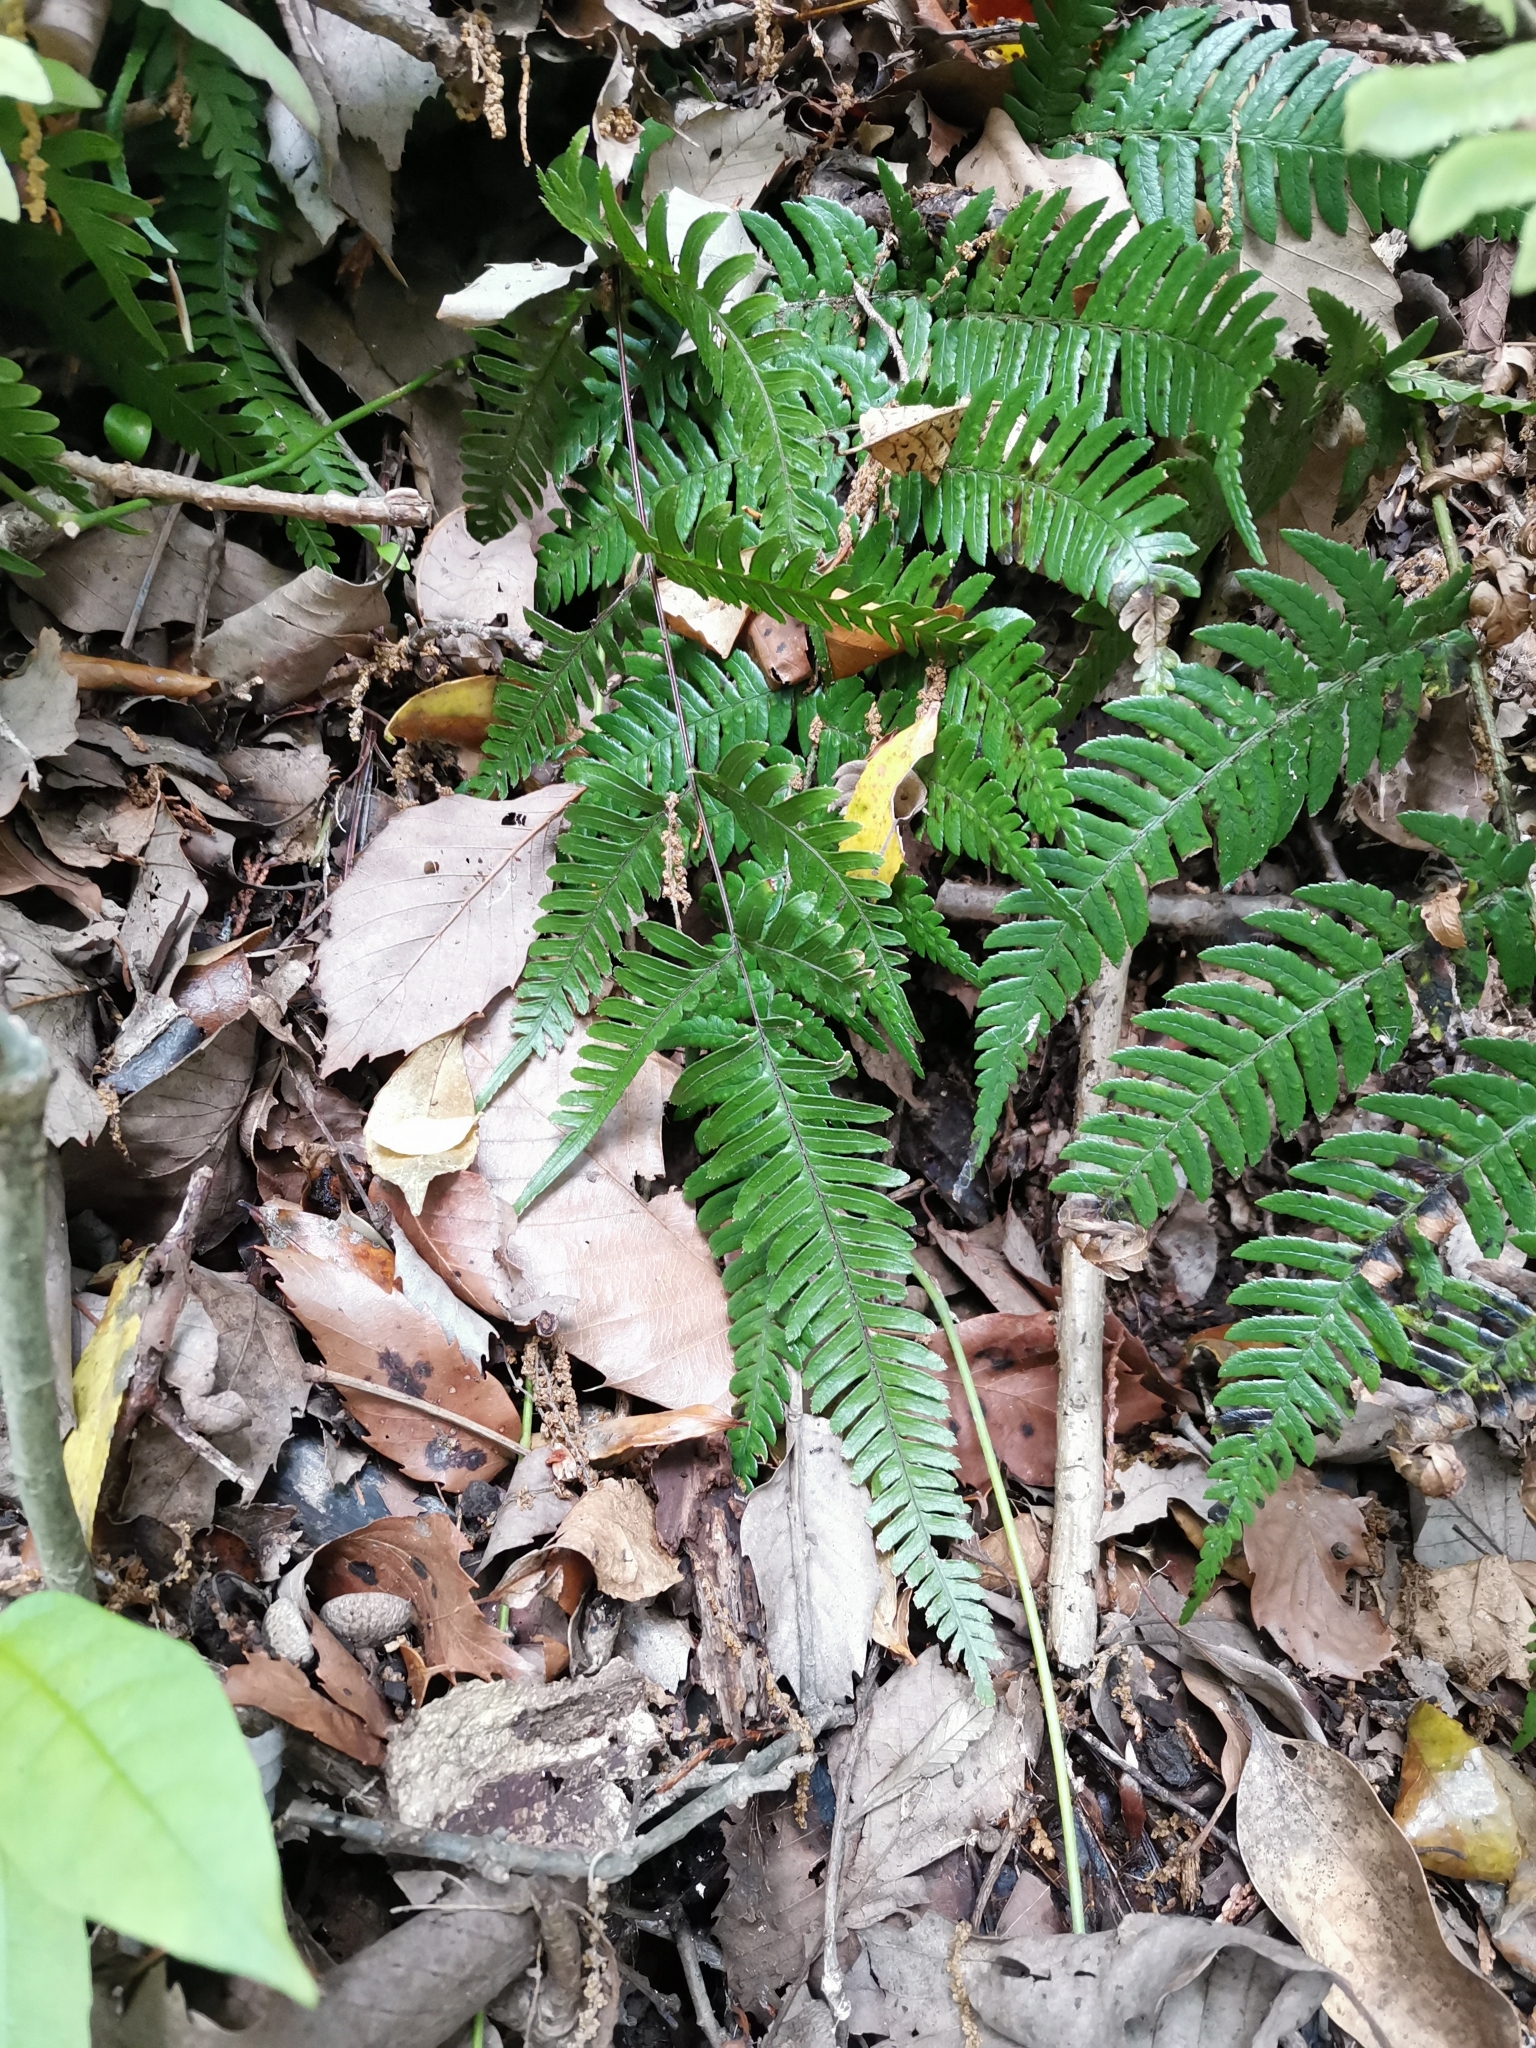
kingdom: Plantae
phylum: Tracheophyta
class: Polypodiopsida
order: Polypodiales
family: Pteridaceae
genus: Pteris
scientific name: Pteris dispar
